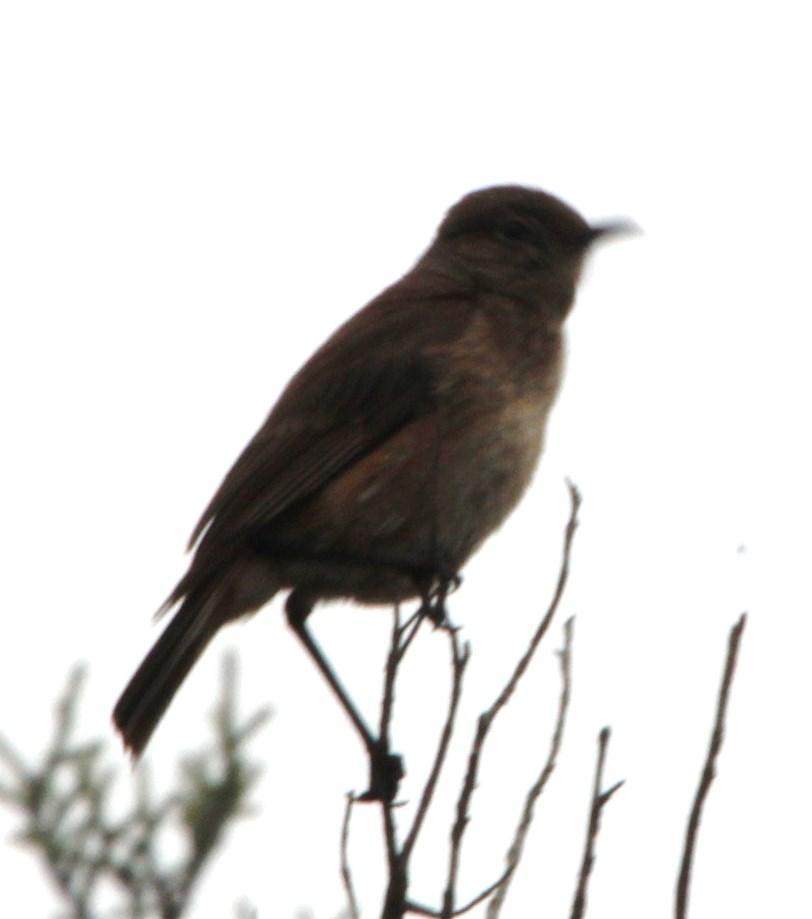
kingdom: Animalia
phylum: Chordata
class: Aves
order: Passeriformes
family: Muscicapidae
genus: Oenanthe
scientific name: Oenanthe familiaris
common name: Familiar chat
